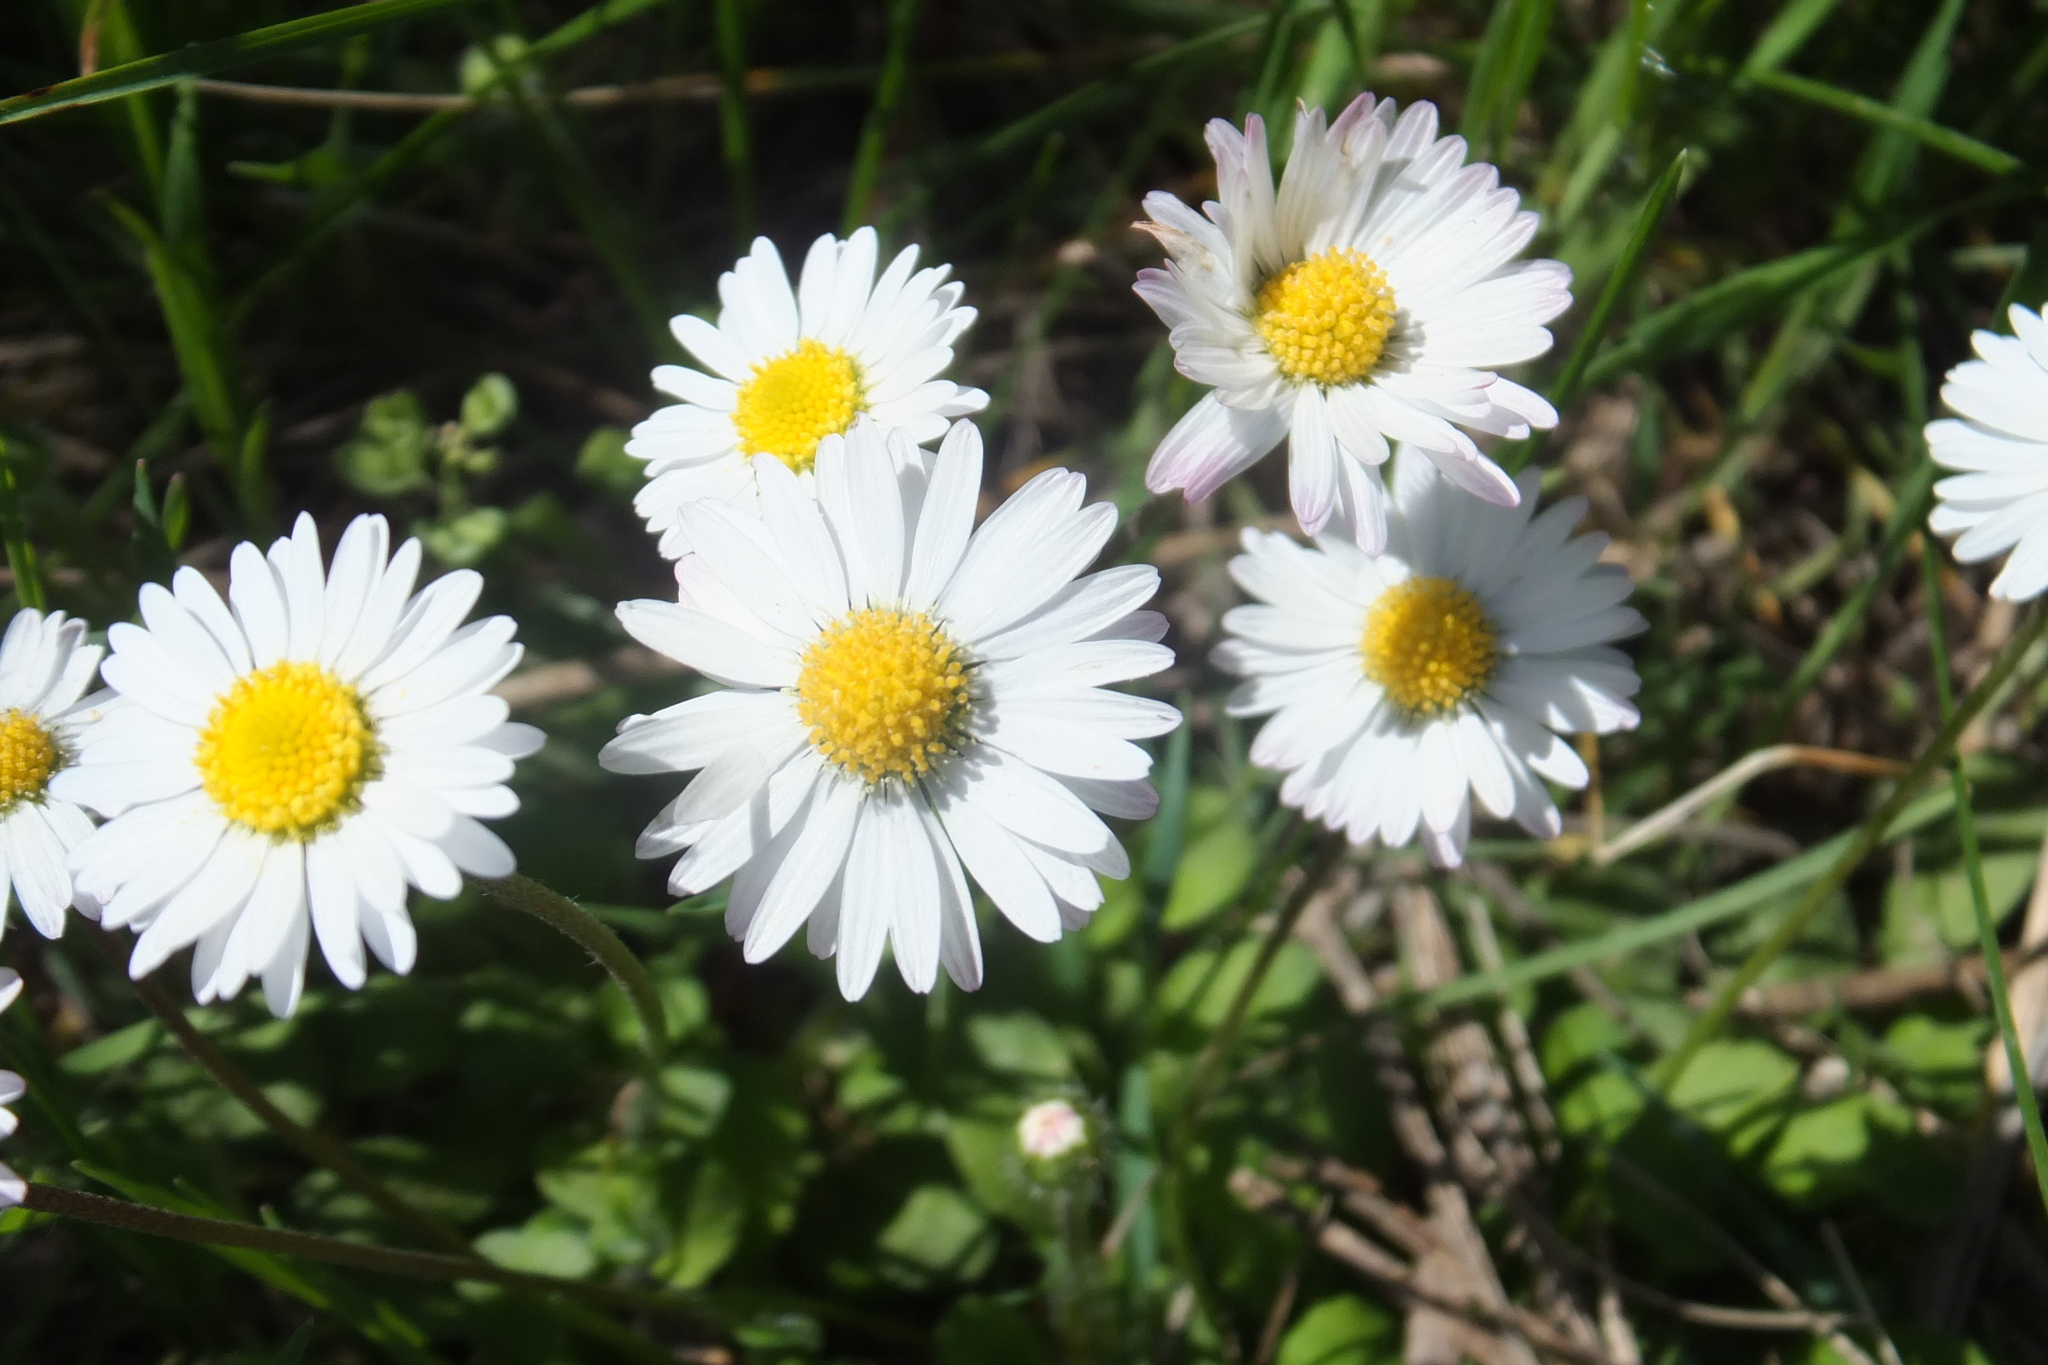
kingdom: Plantae
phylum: Tracheophyta
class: Magnoliopsida
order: Asterales
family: Asteraceae
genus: Bellis
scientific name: Bellis perennis
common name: Lawndaisy
